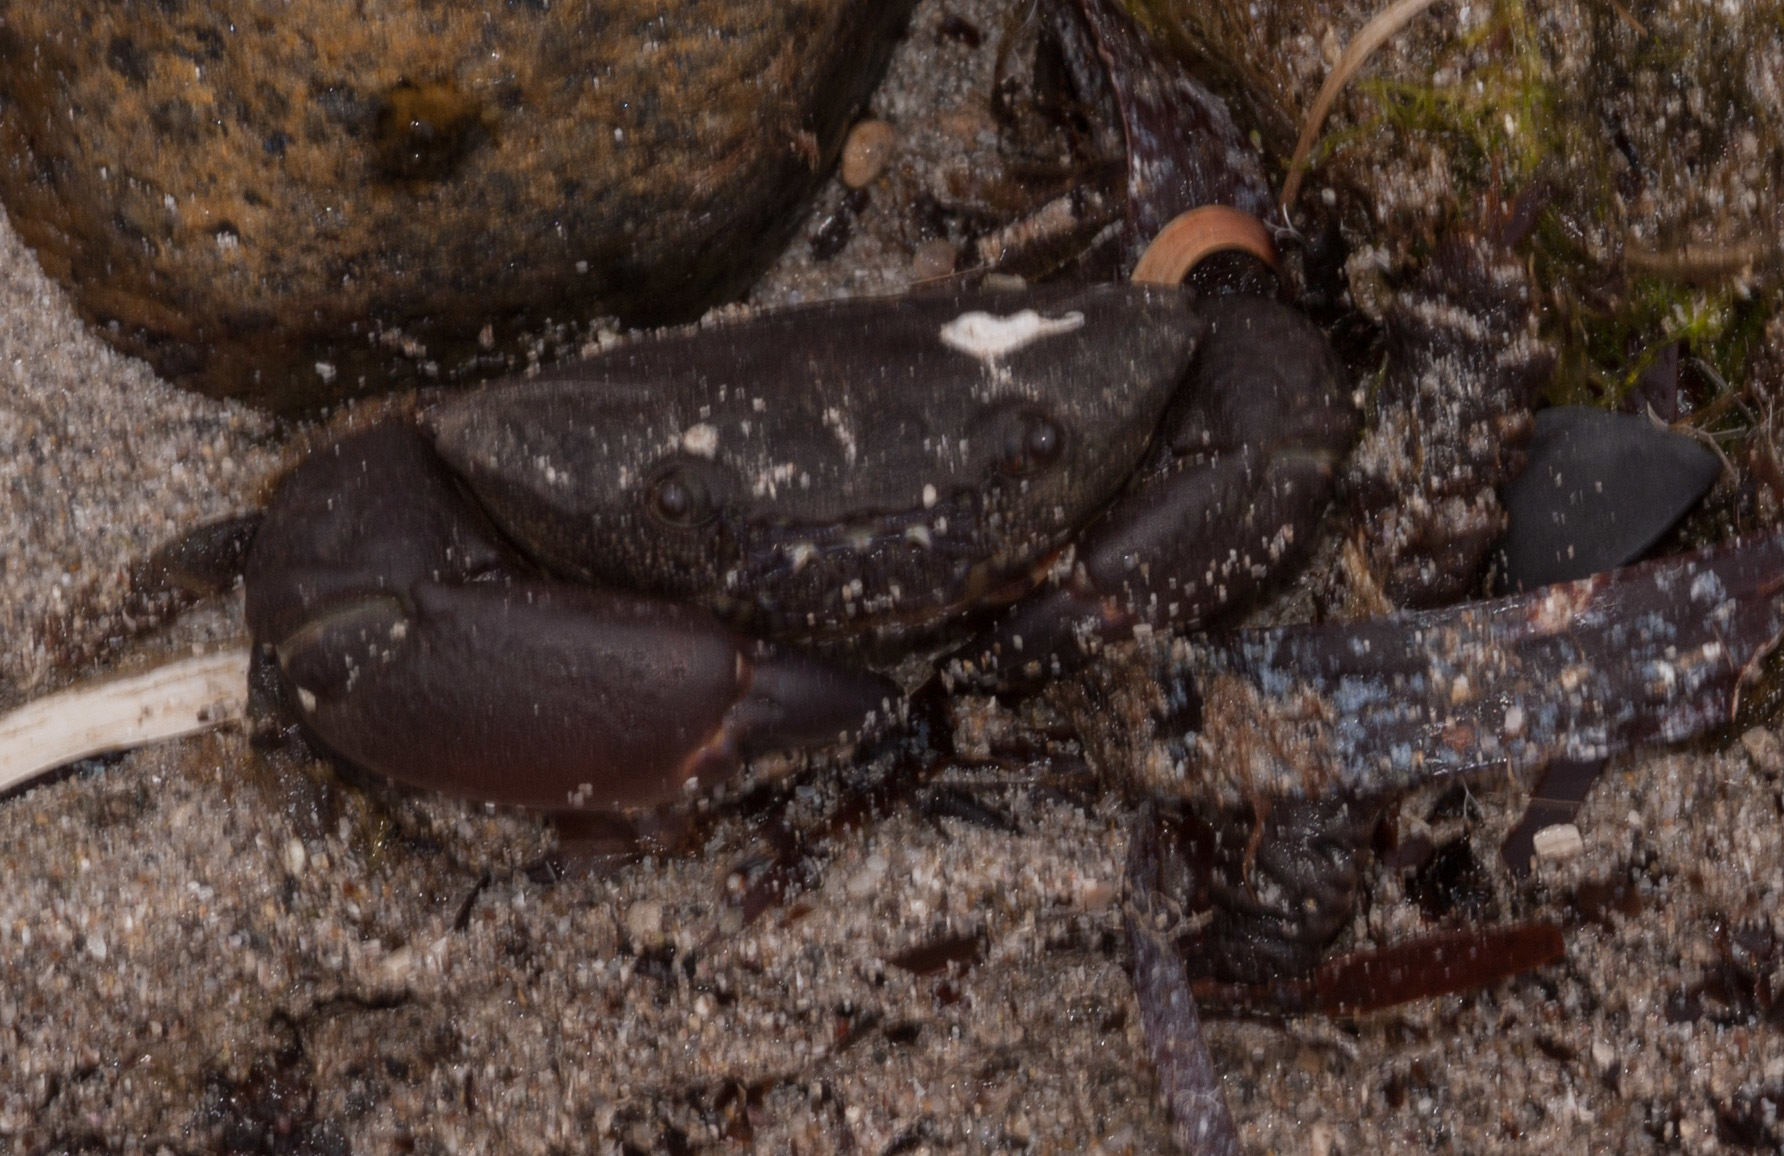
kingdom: Animalia
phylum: Arthropoda
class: Malacostraca
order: Decapoda
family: Oziidae
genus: Ozius
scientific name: Ozius truncatus
